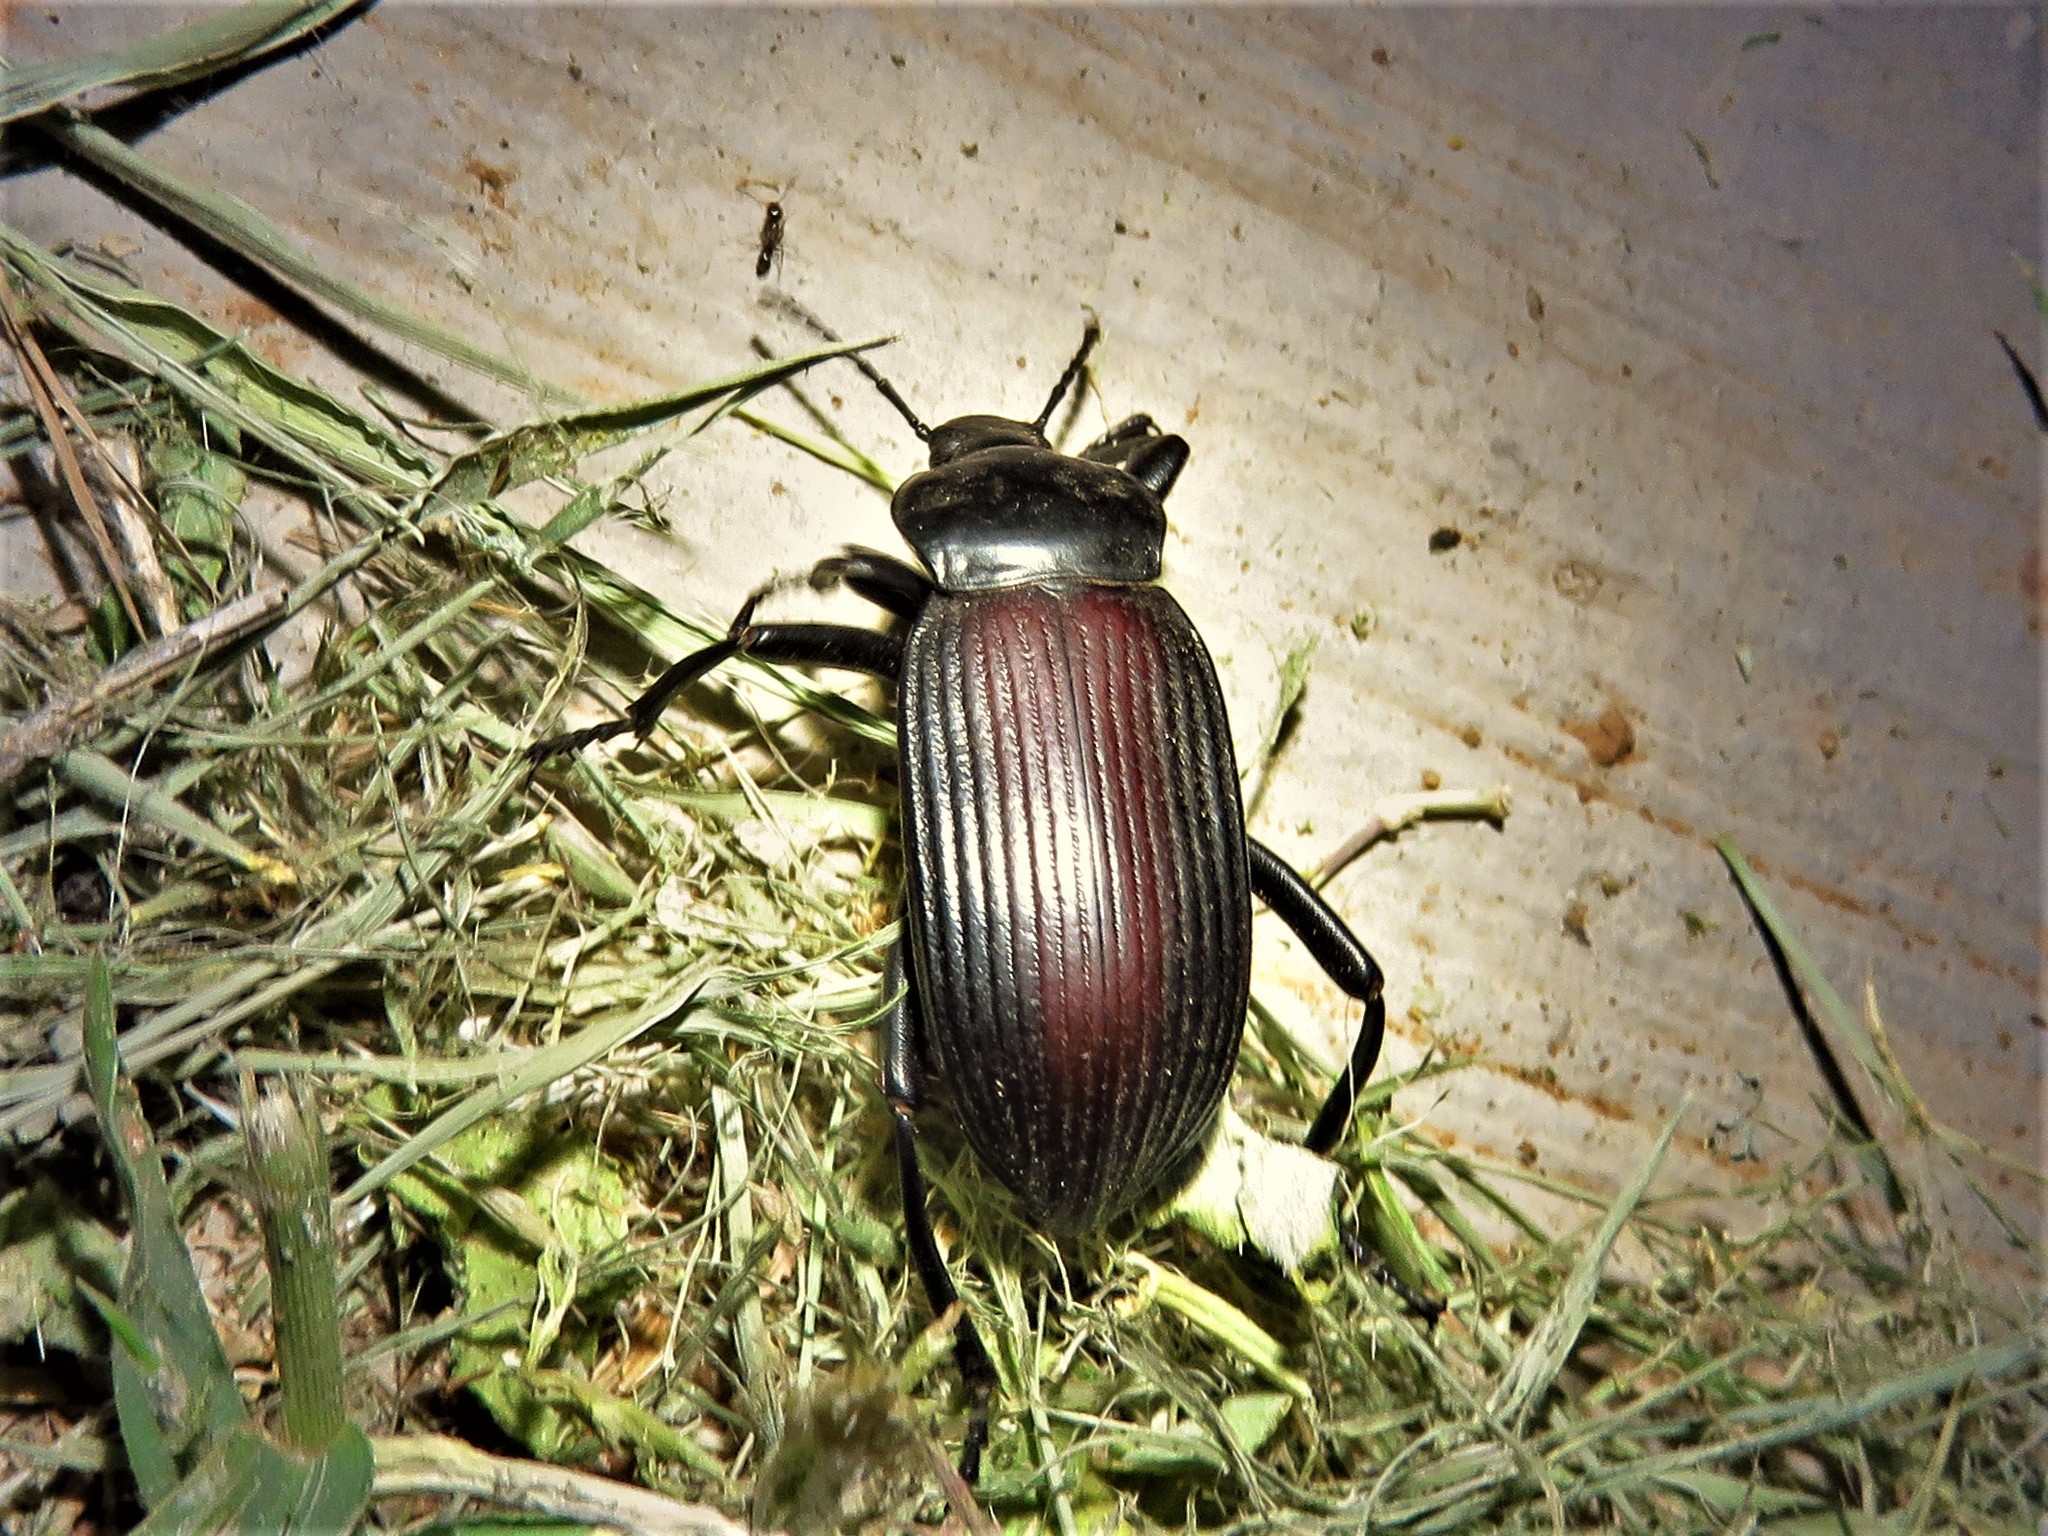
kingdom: Animalia
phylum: Arthropoda
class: Insecta
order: Coleoptera
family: Tenebrionidae
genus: Eleodes
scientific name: Eleodes acuta
